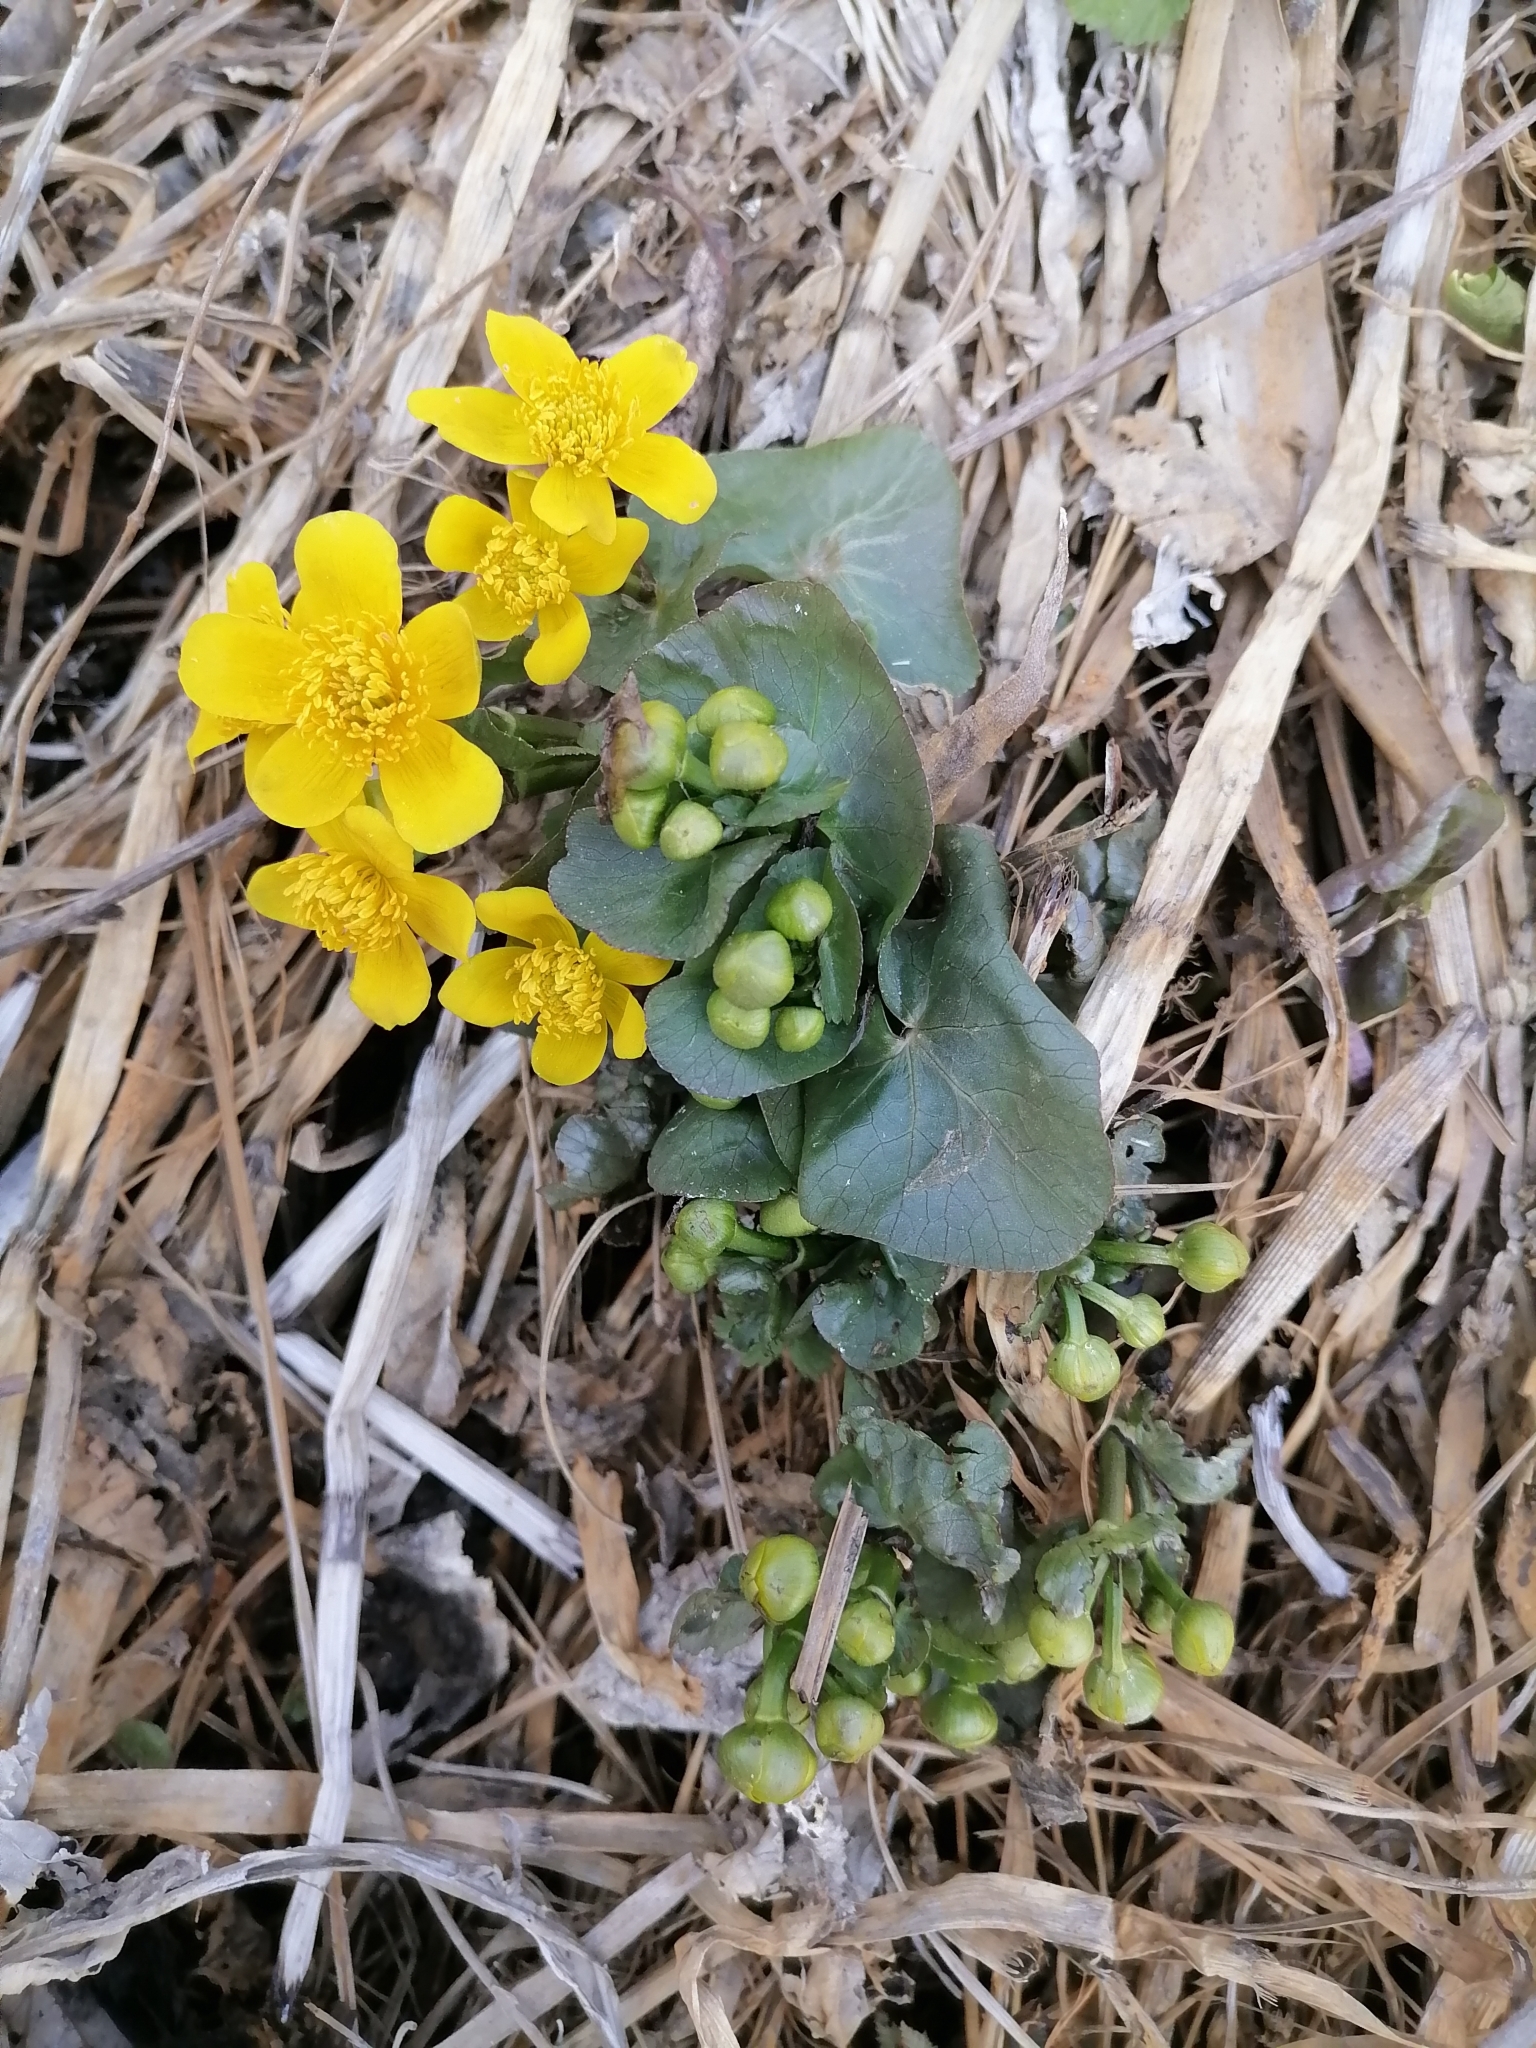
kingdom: Plantae
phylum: Tracheophyta
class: Magnoliopsida
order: Ranunculales
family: Ranunculaceae
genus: Caltha
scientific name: Caltha palustris
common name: Marsh marigold
